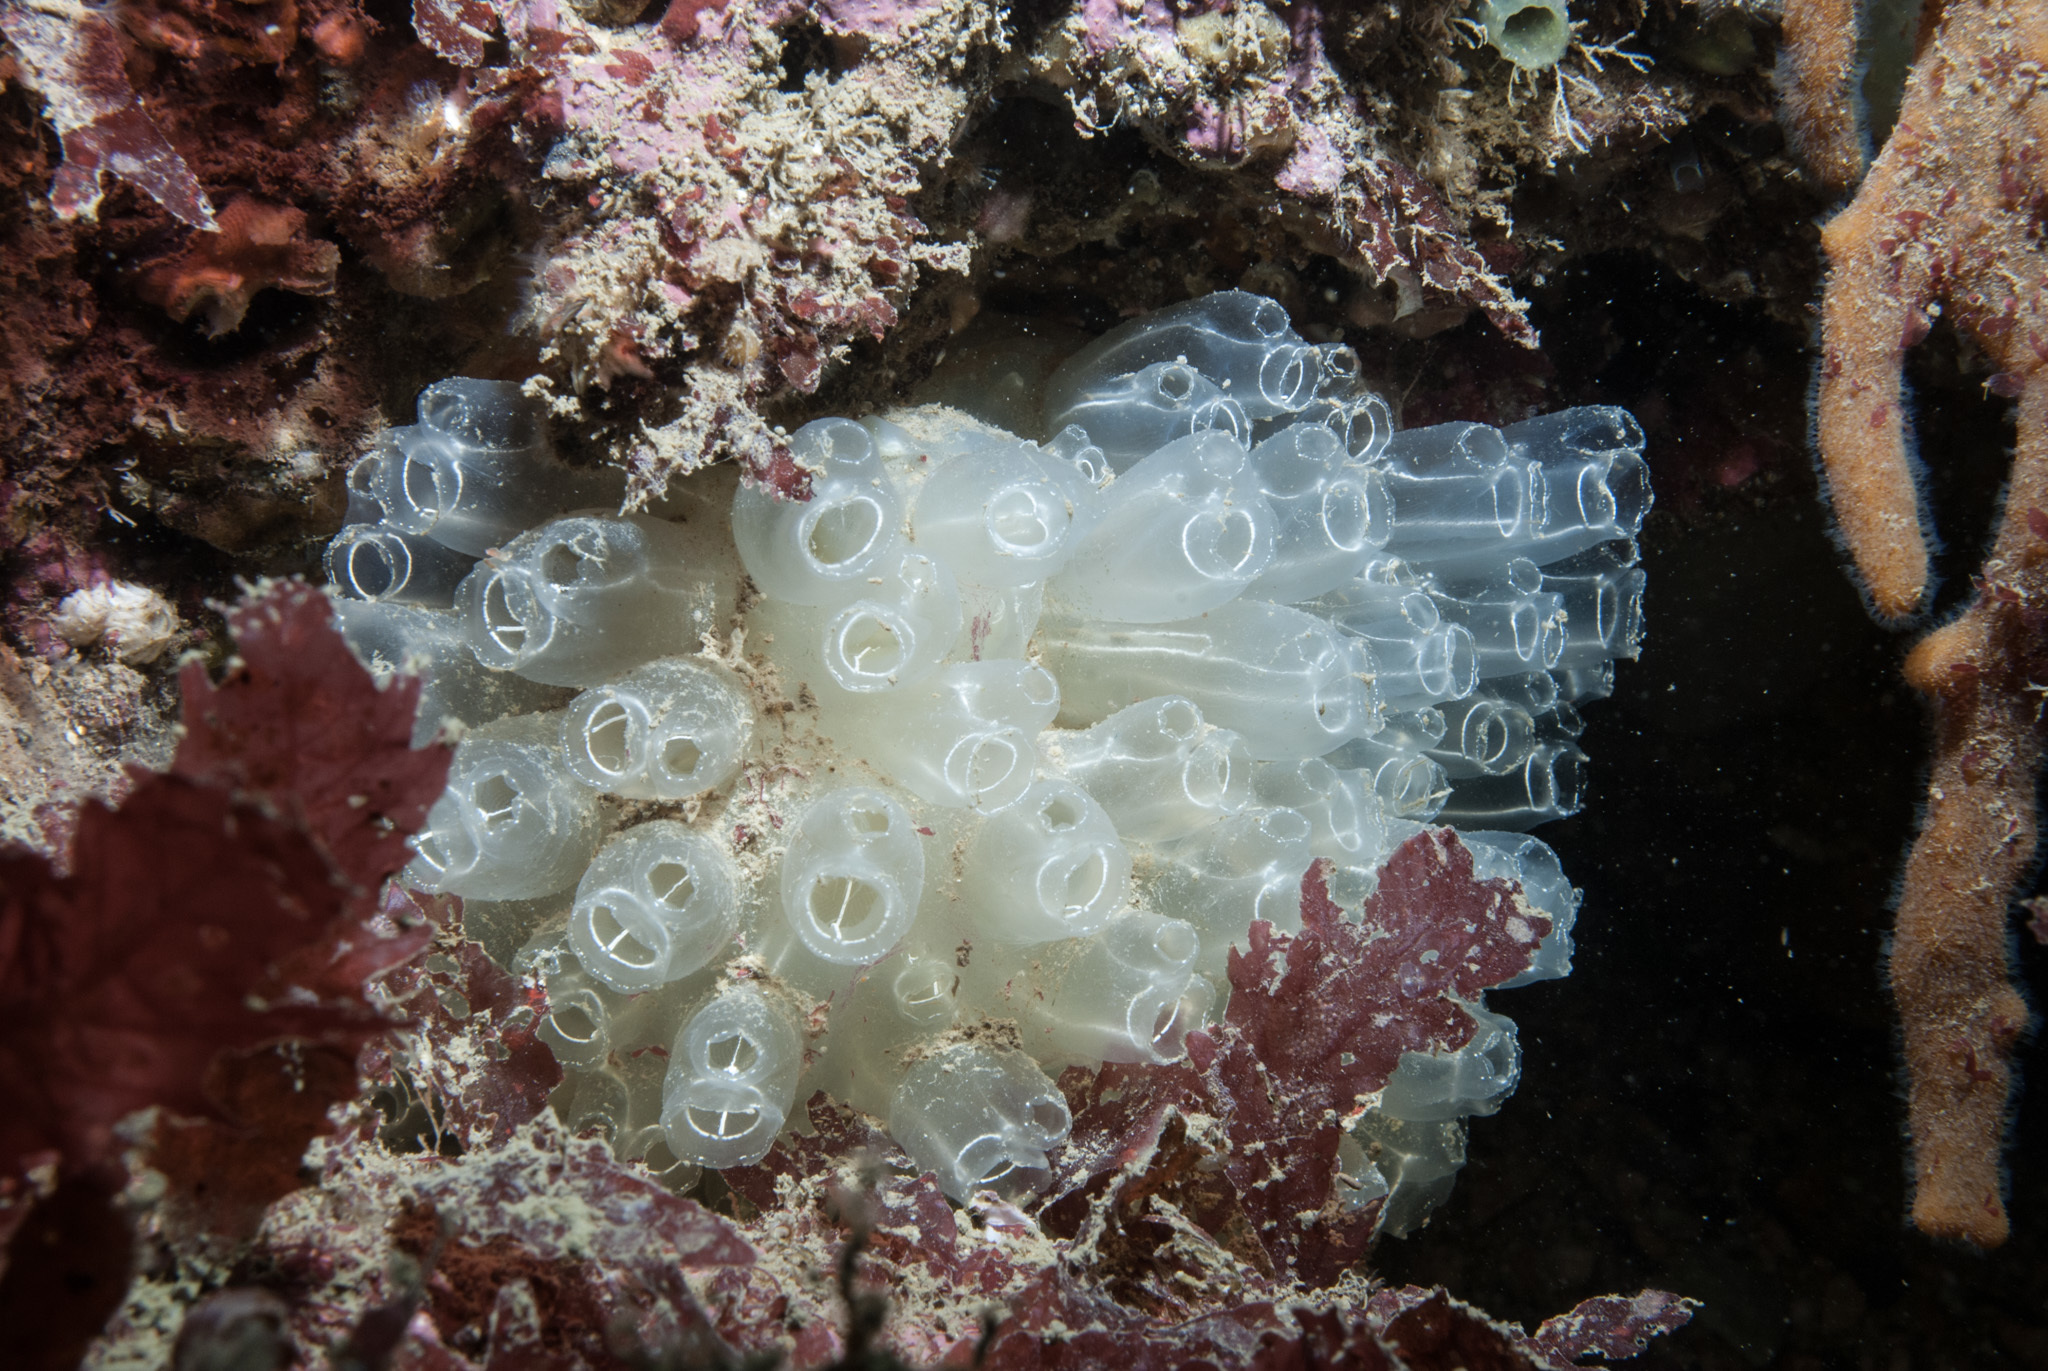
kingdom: Animalia
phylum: Chordata
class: Ascidiacea
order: Aplousobranchia
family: Diazonidae
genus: Diazona
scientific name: Diazona violacea
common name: Football ascidian
